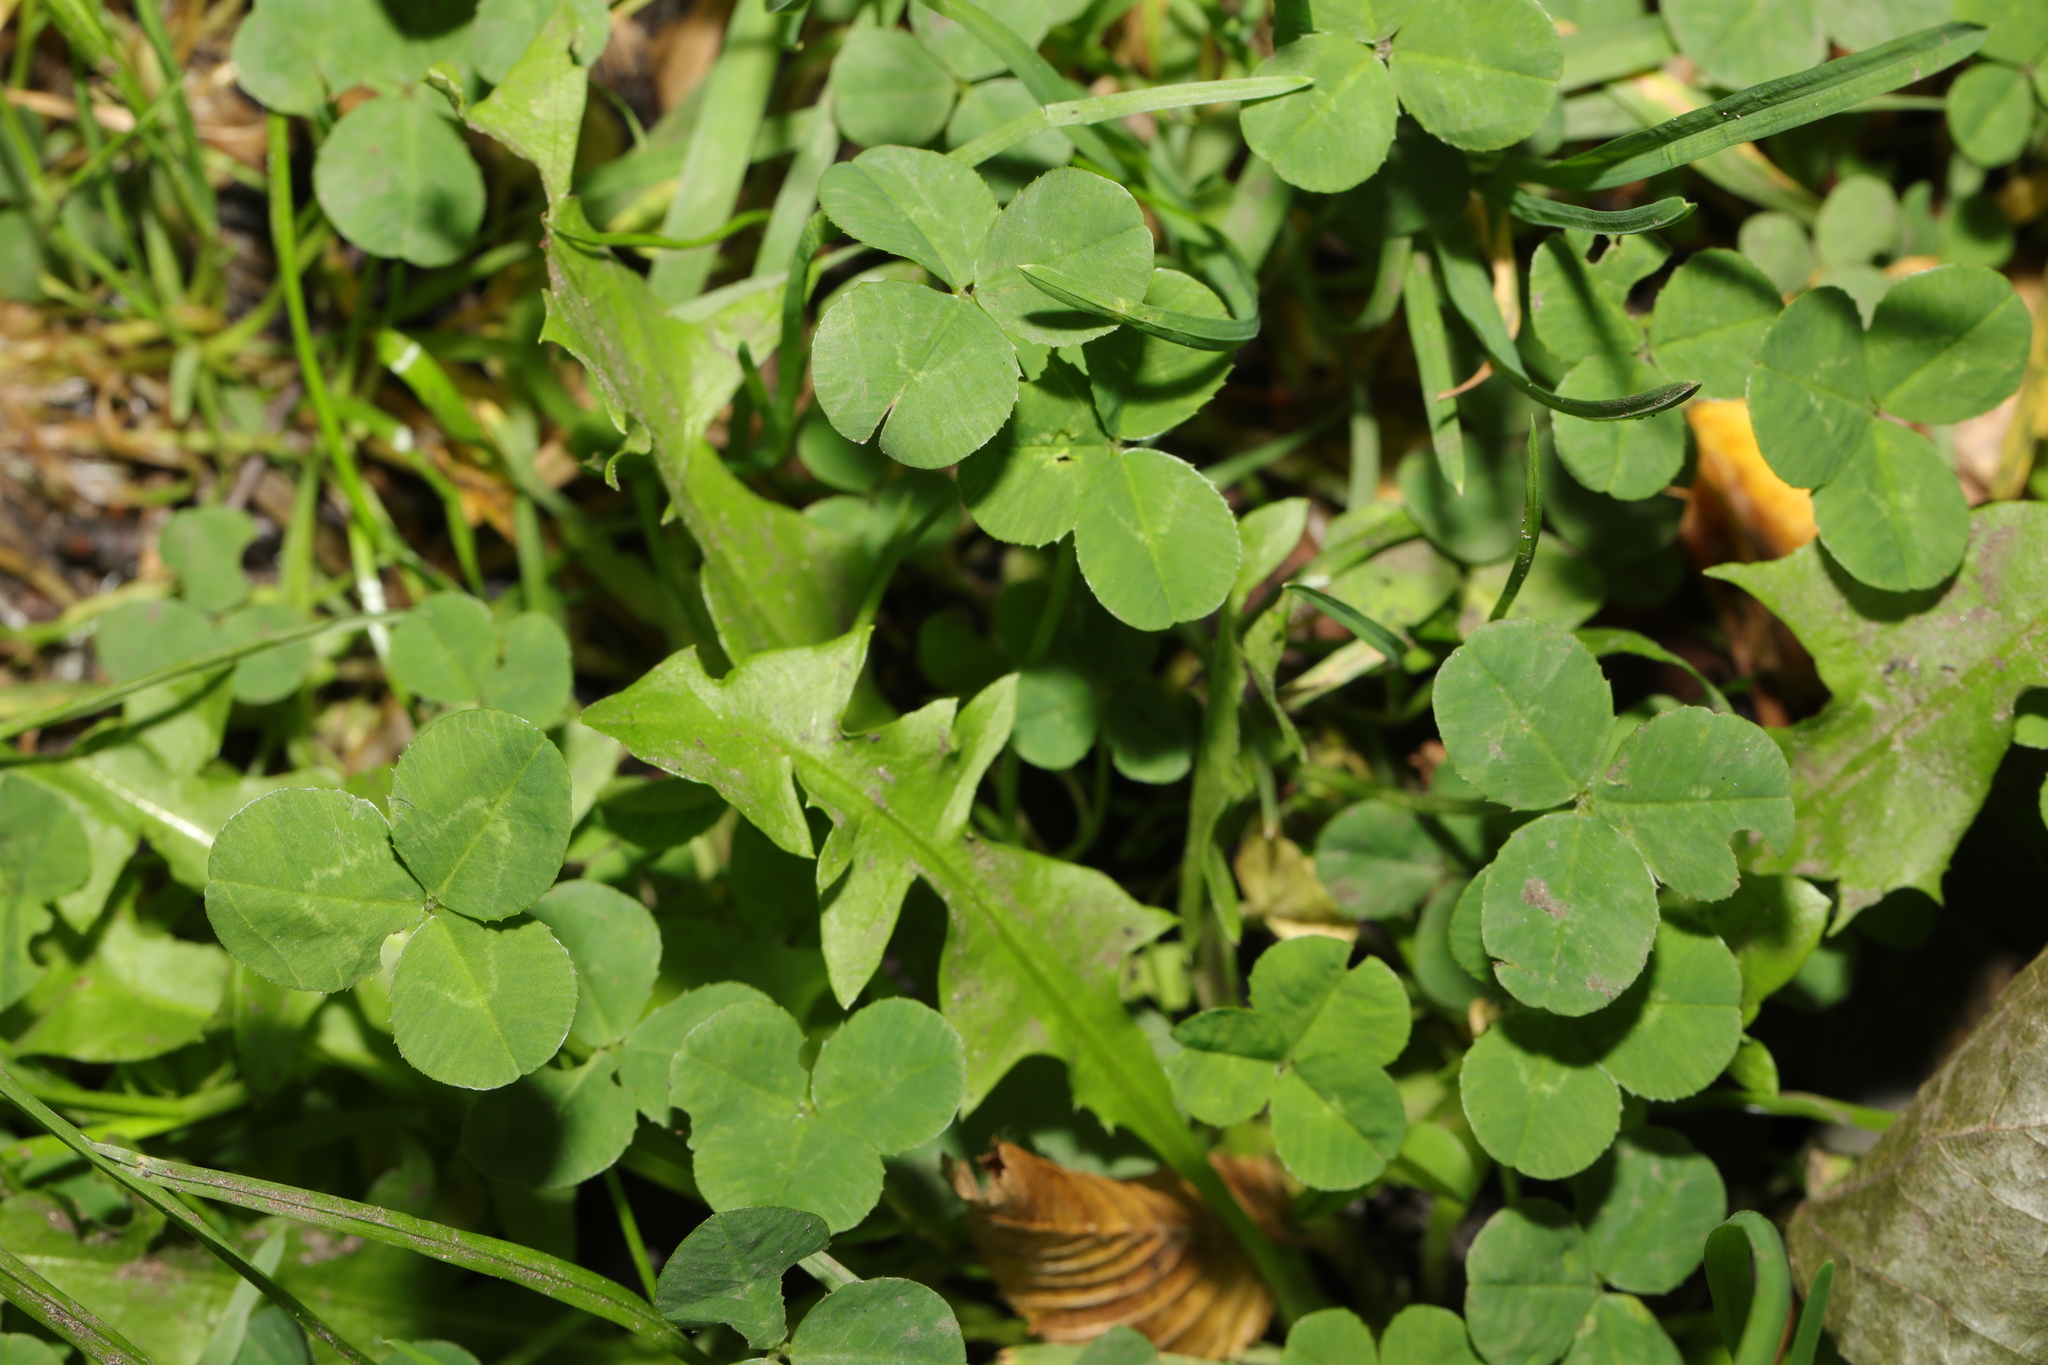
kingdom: Plantae
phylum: Tracheophyta
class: Magnoliopsida
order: Fabales
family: Fabaceae
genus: Trifolium
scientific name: Trifolium repens
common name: White clover
